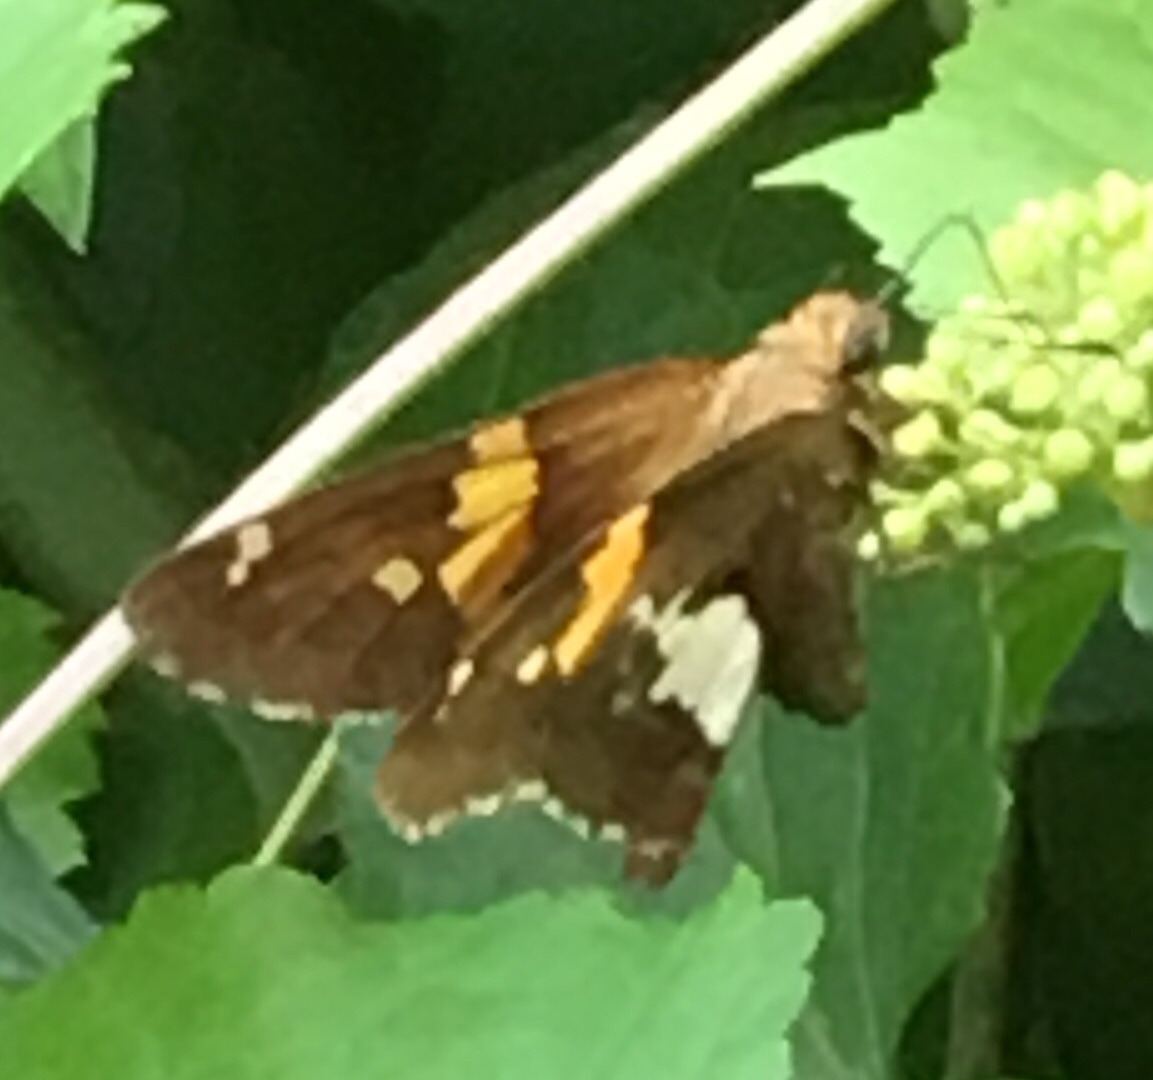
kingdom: Animalia
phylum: Arthropoda
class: Insecta
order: Lepidoptera
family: Hesperiidae
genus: Epargyreus
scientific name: Epargyreus clarus
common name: Silver-spotted skipper
